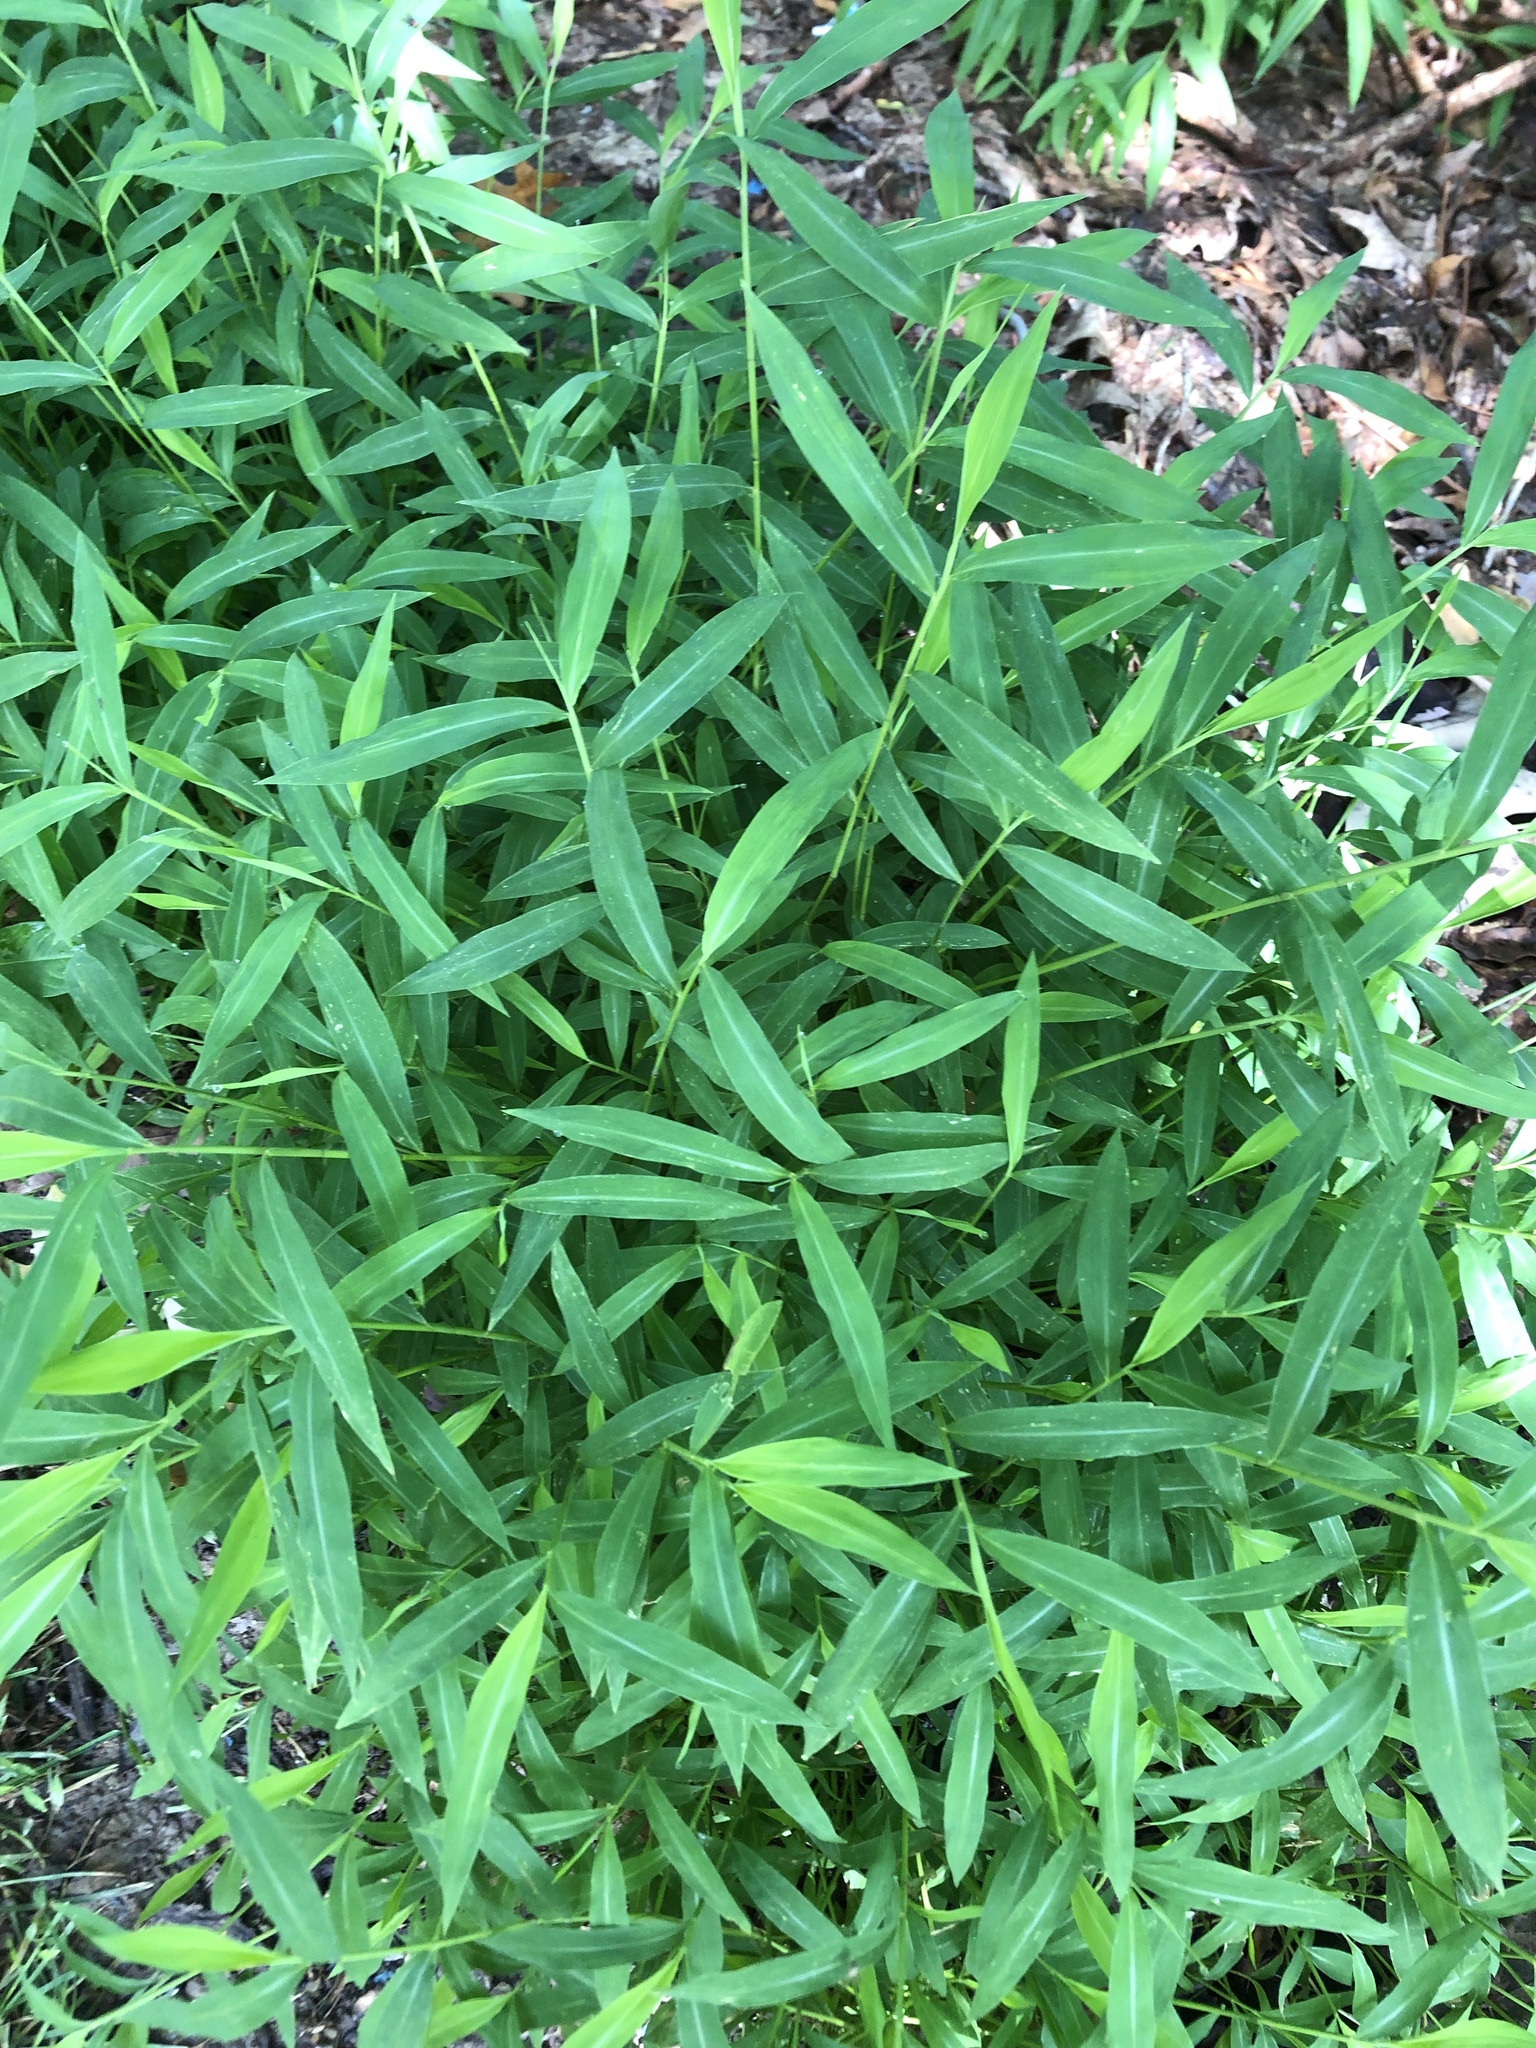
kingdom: Plantae
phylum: Tracheophyta
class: Liliopsida
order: Poales
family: Poaceae
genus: Microstegium
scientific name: Microstegium vimineum
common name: Japanese stiltgrass
